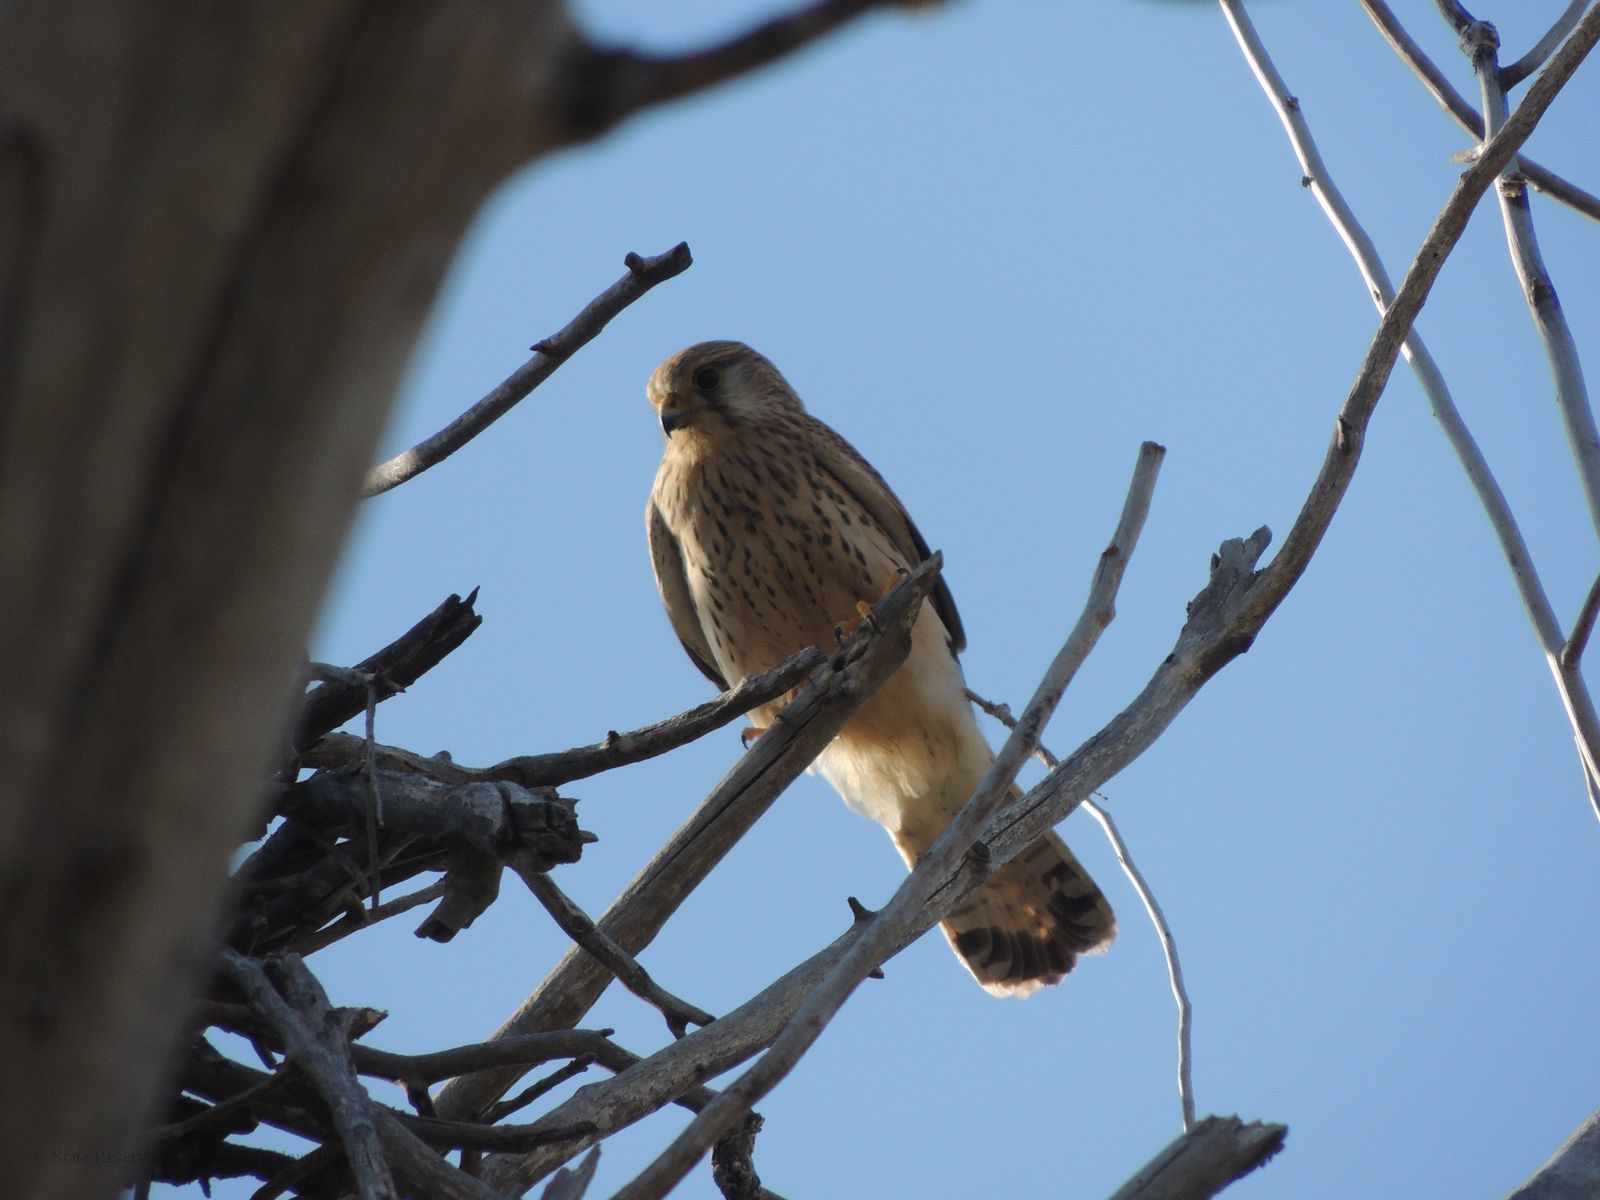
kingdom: Animalia
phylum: Chordata
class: Aves
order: Falconiformes
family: Falconidae
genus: Falco
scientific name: Falco tinnunculus
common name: Common kestrel
